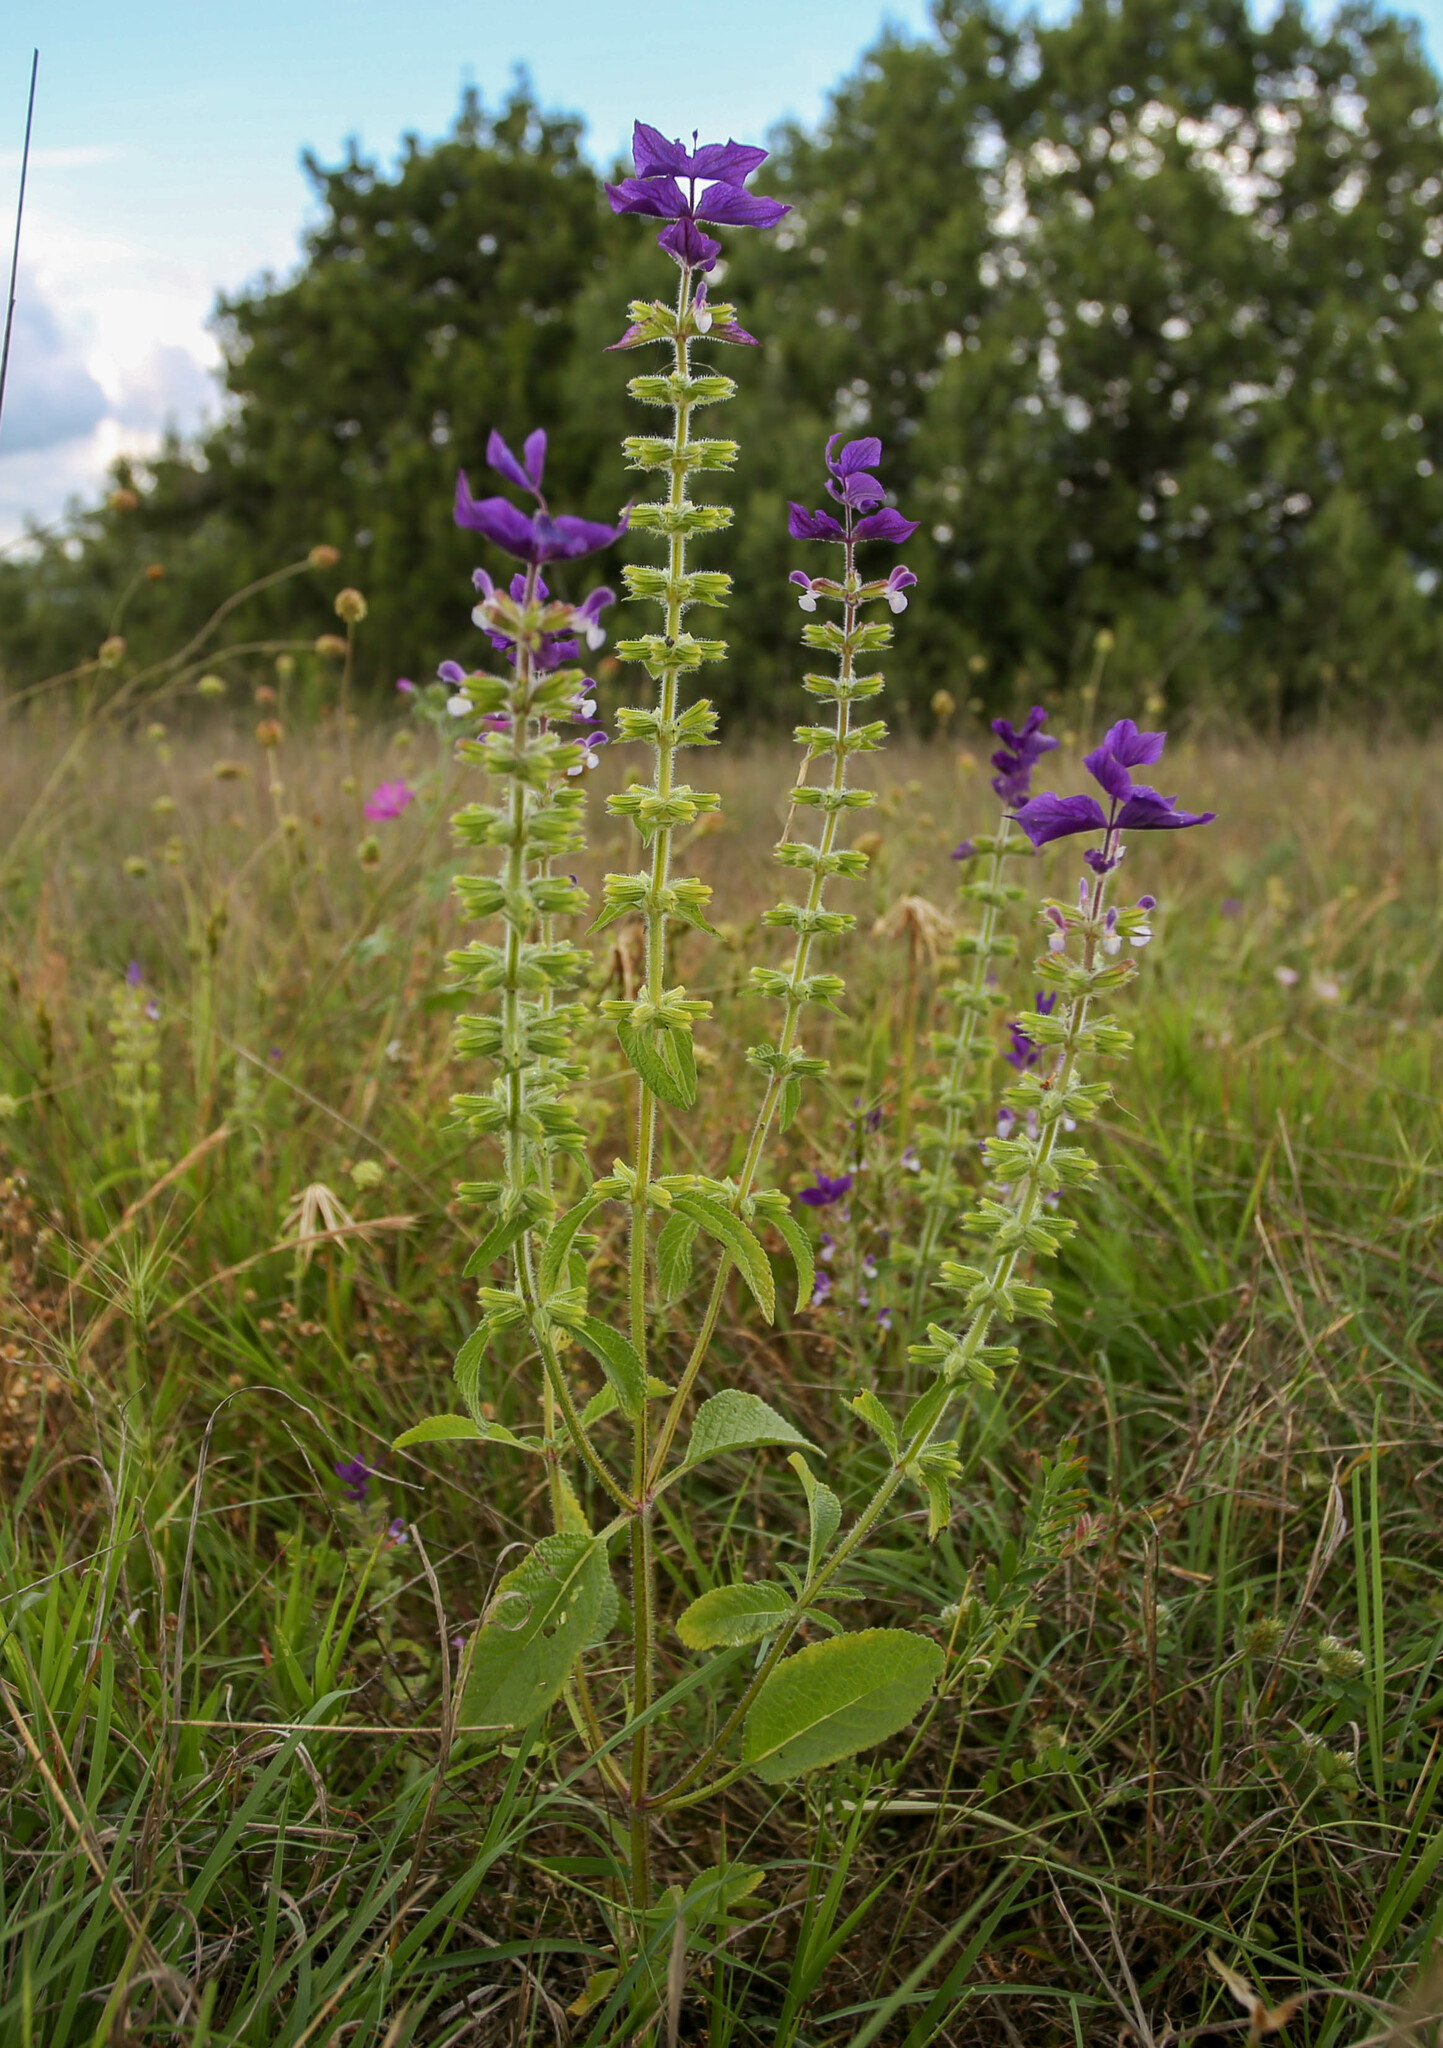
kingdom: Plantae
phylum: Tracheophyta
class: Magnoliopsida
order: Lamiales
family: Lamiaceae
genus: Salvia
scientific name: Salvia viridis
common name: Annual clary
